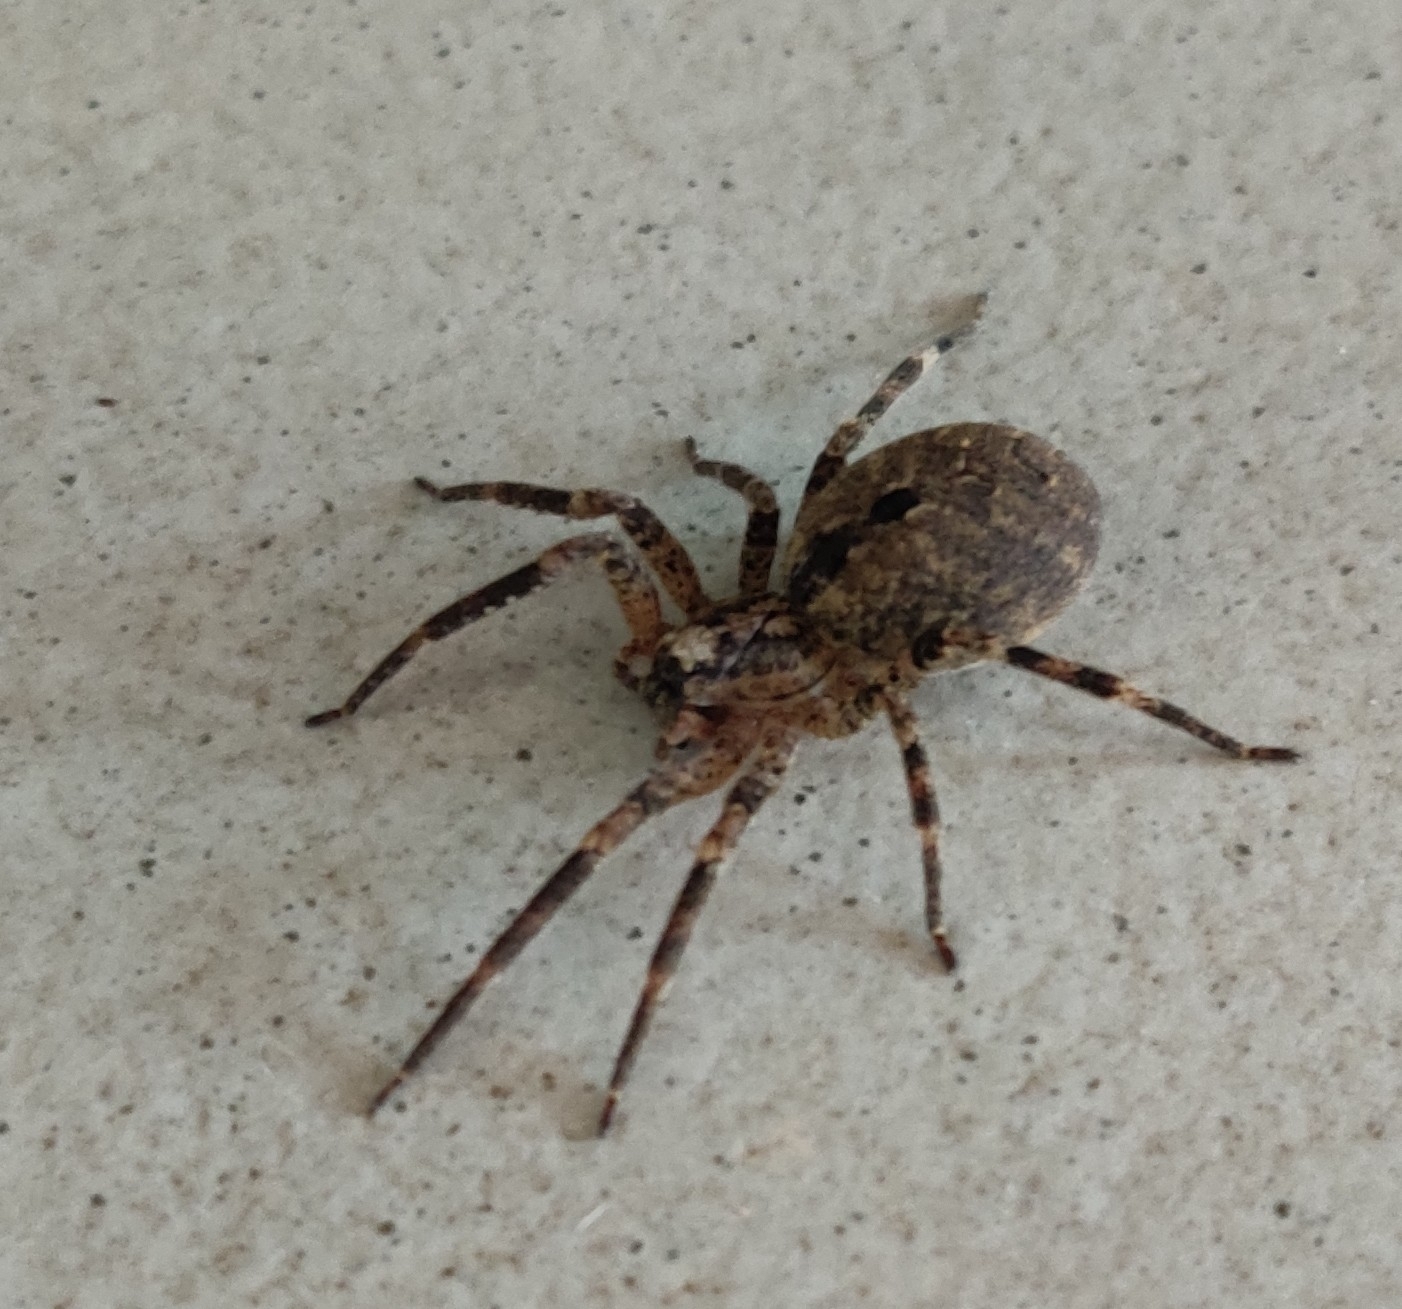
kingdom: Animalia
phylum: Arthropoda
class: Arachnida
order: Araneae
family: Zoropsidae
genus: Zoropsis
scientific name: Zoropsis spinimana
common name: Zoropsid spider
